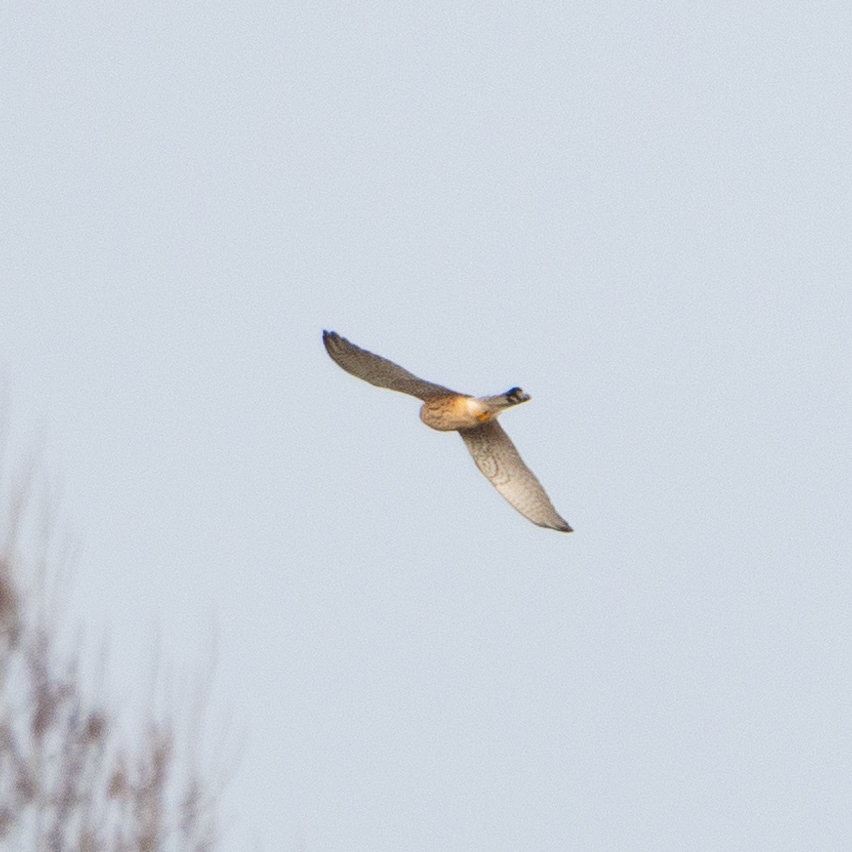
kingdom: Animalia
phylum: Chordata
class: Aves
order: Falconiformes
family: Falconidae
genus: Falco
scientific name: Falco tinnunculus
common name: Common kestrel
